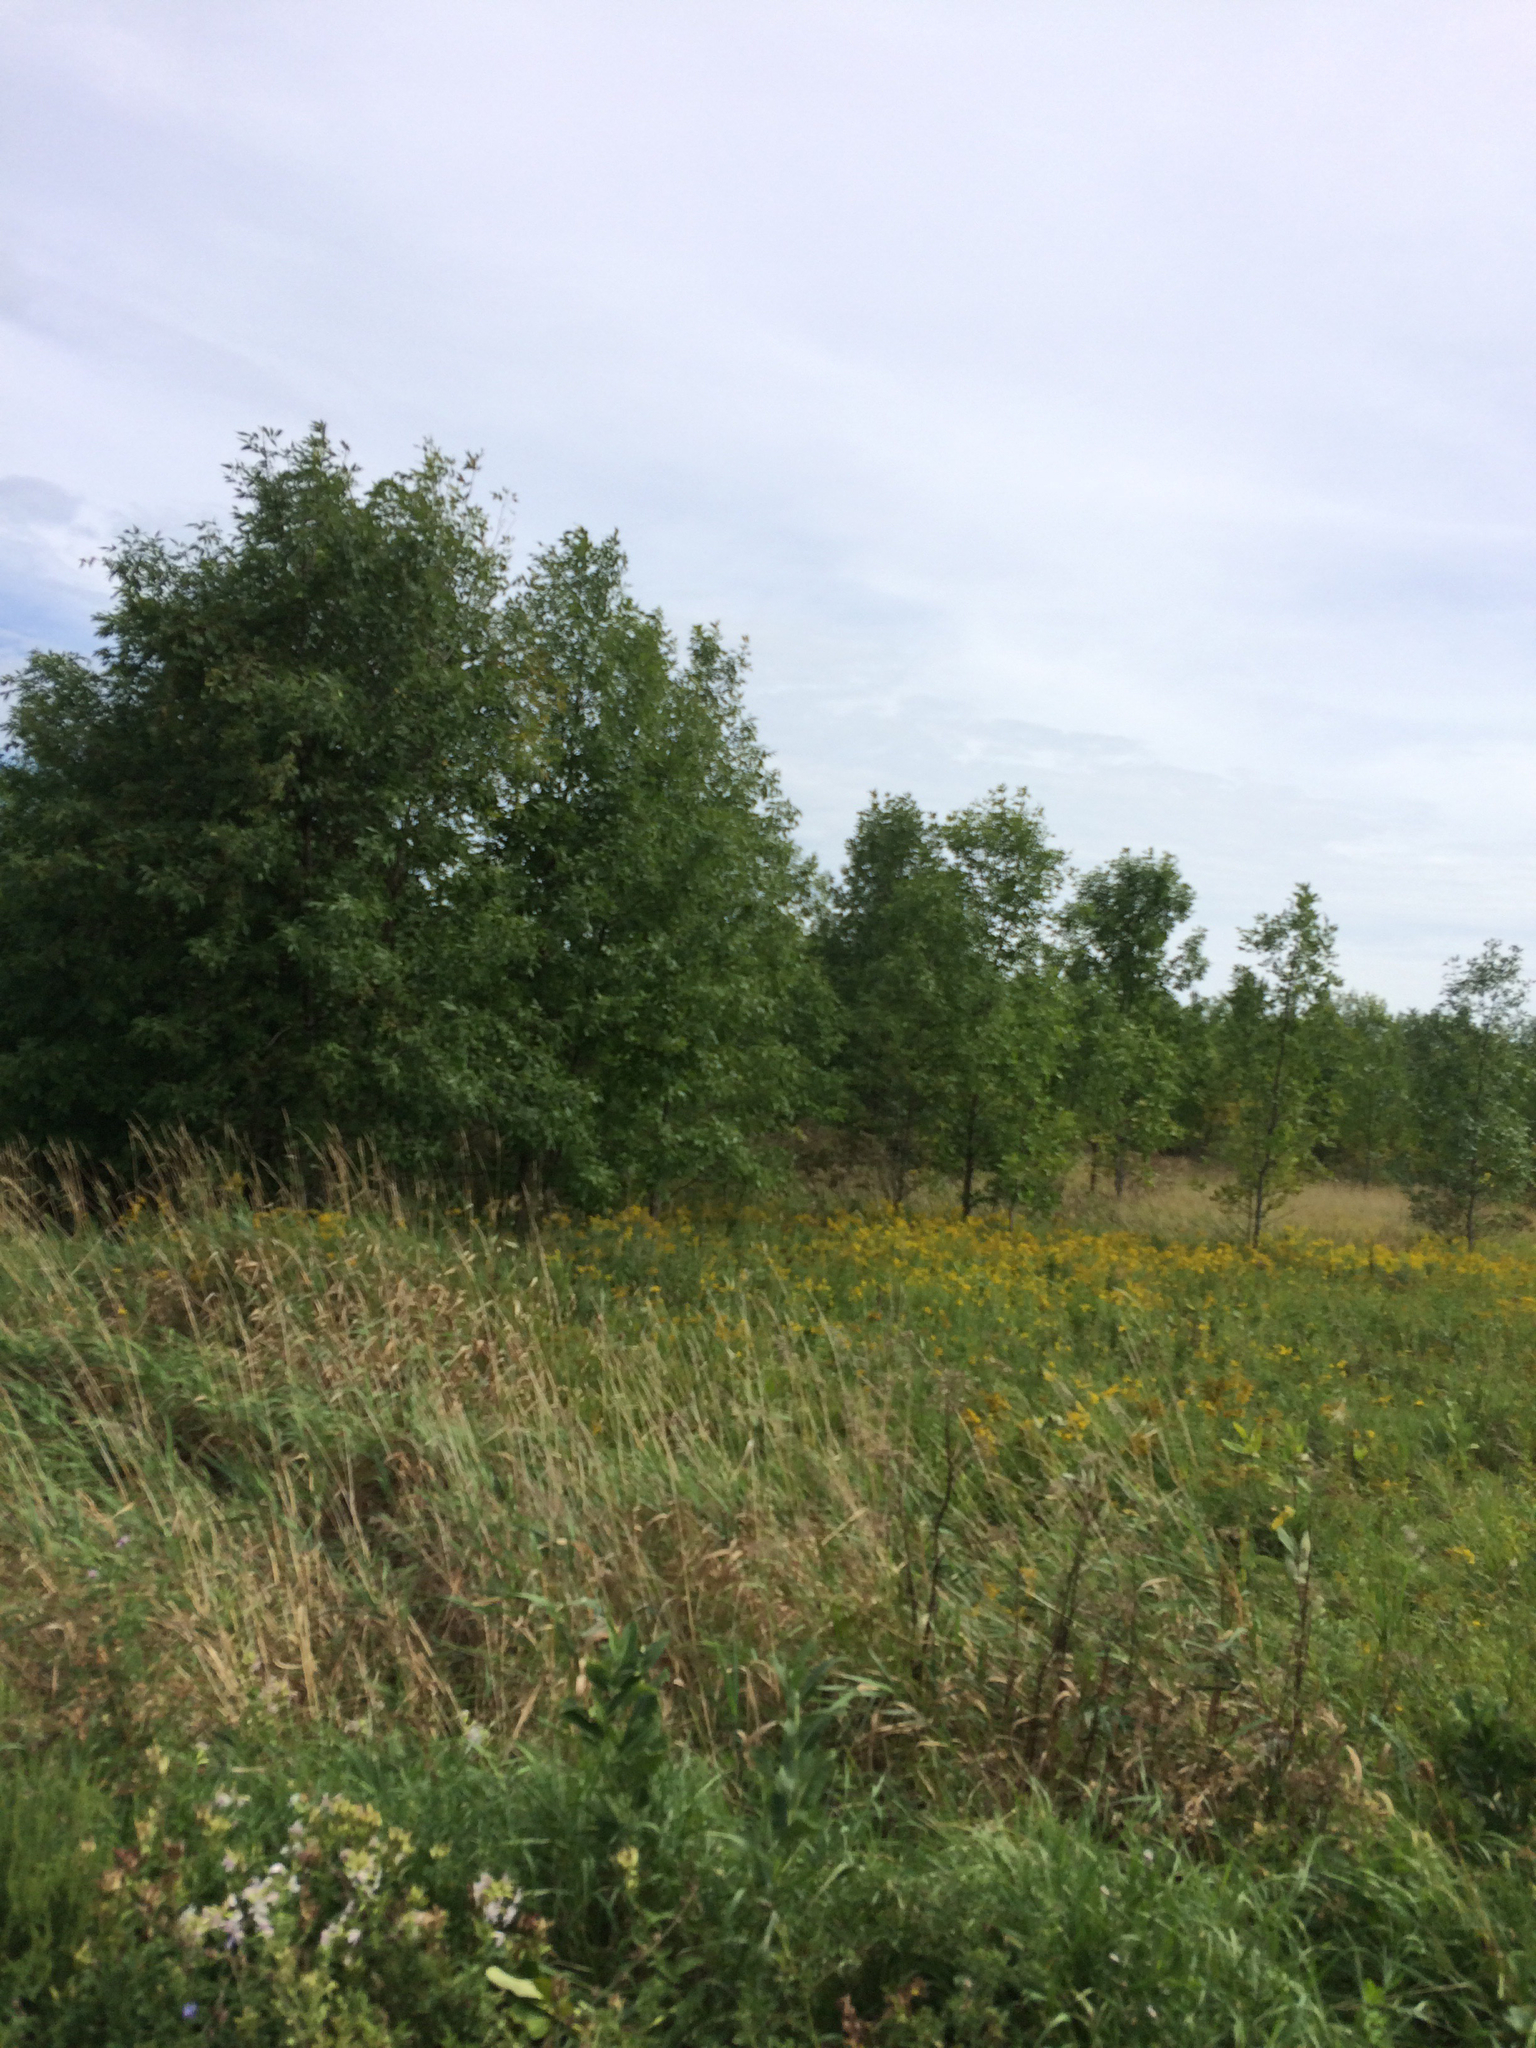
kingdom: Plantae
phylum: Tracheophyta
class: Magnoliopsida
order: Lamiales
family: Oleaceae
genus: Fraxinus
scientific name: Fraxinus pennsylvanica
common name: Green ash
